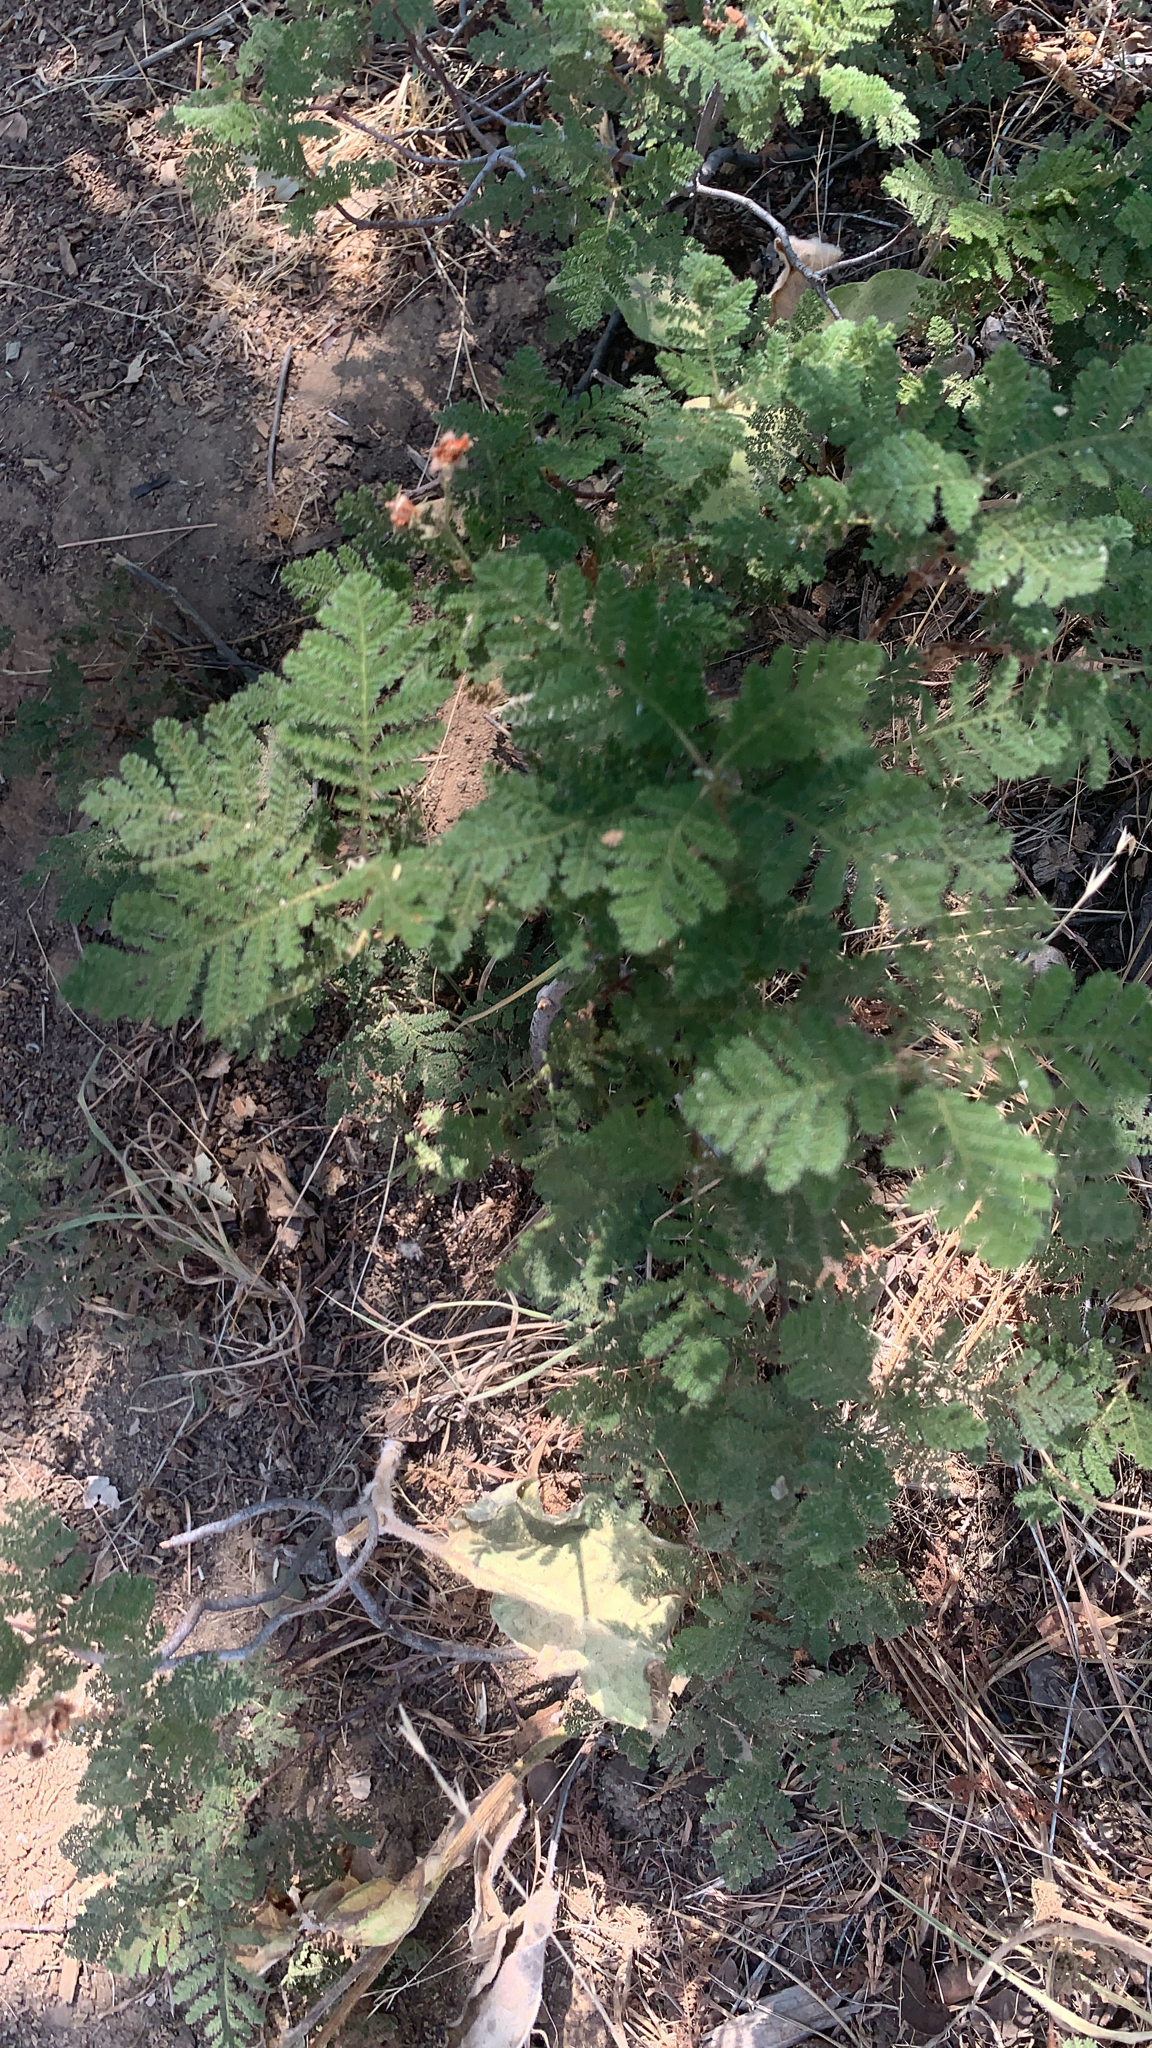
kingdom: Plantae
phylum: Tracheophyta
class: Magnoliopsida
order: Rosales
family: Rosaceae
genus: Chamaebatia
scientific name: Chamaebatia foliolosa
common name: Mountain misery
